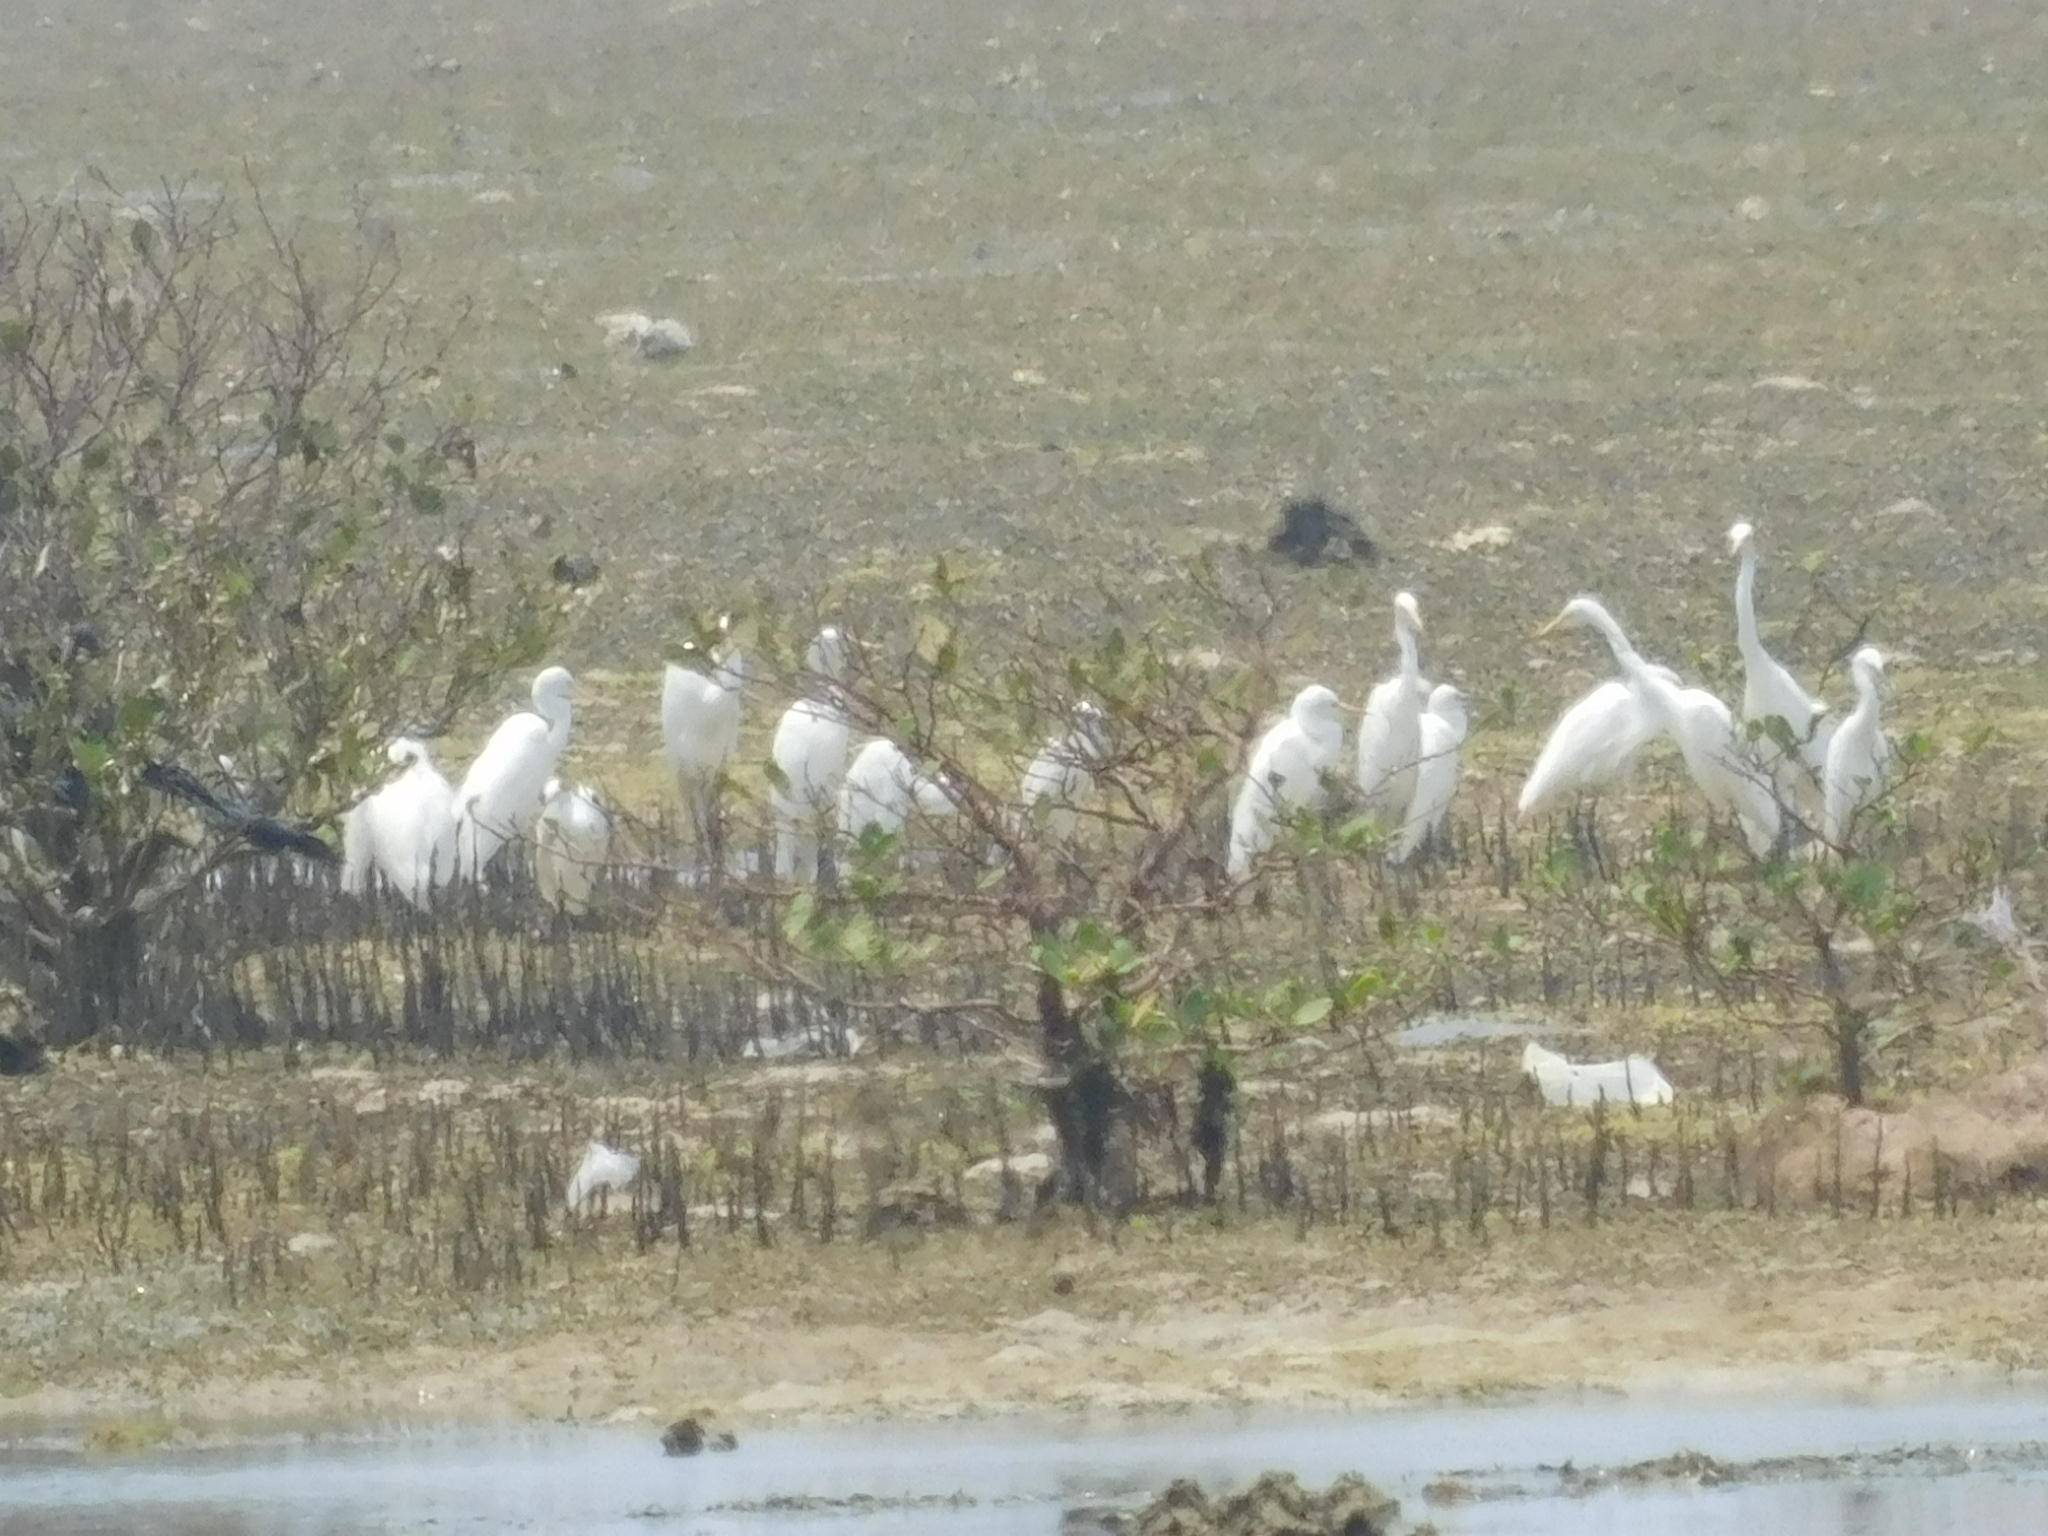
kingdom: Animalia
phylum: Chordata
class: Aves
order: Pelecaniformes
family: Ardeidae
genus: Egretta
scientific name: Egretta intermedia
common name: Intermediate egret
